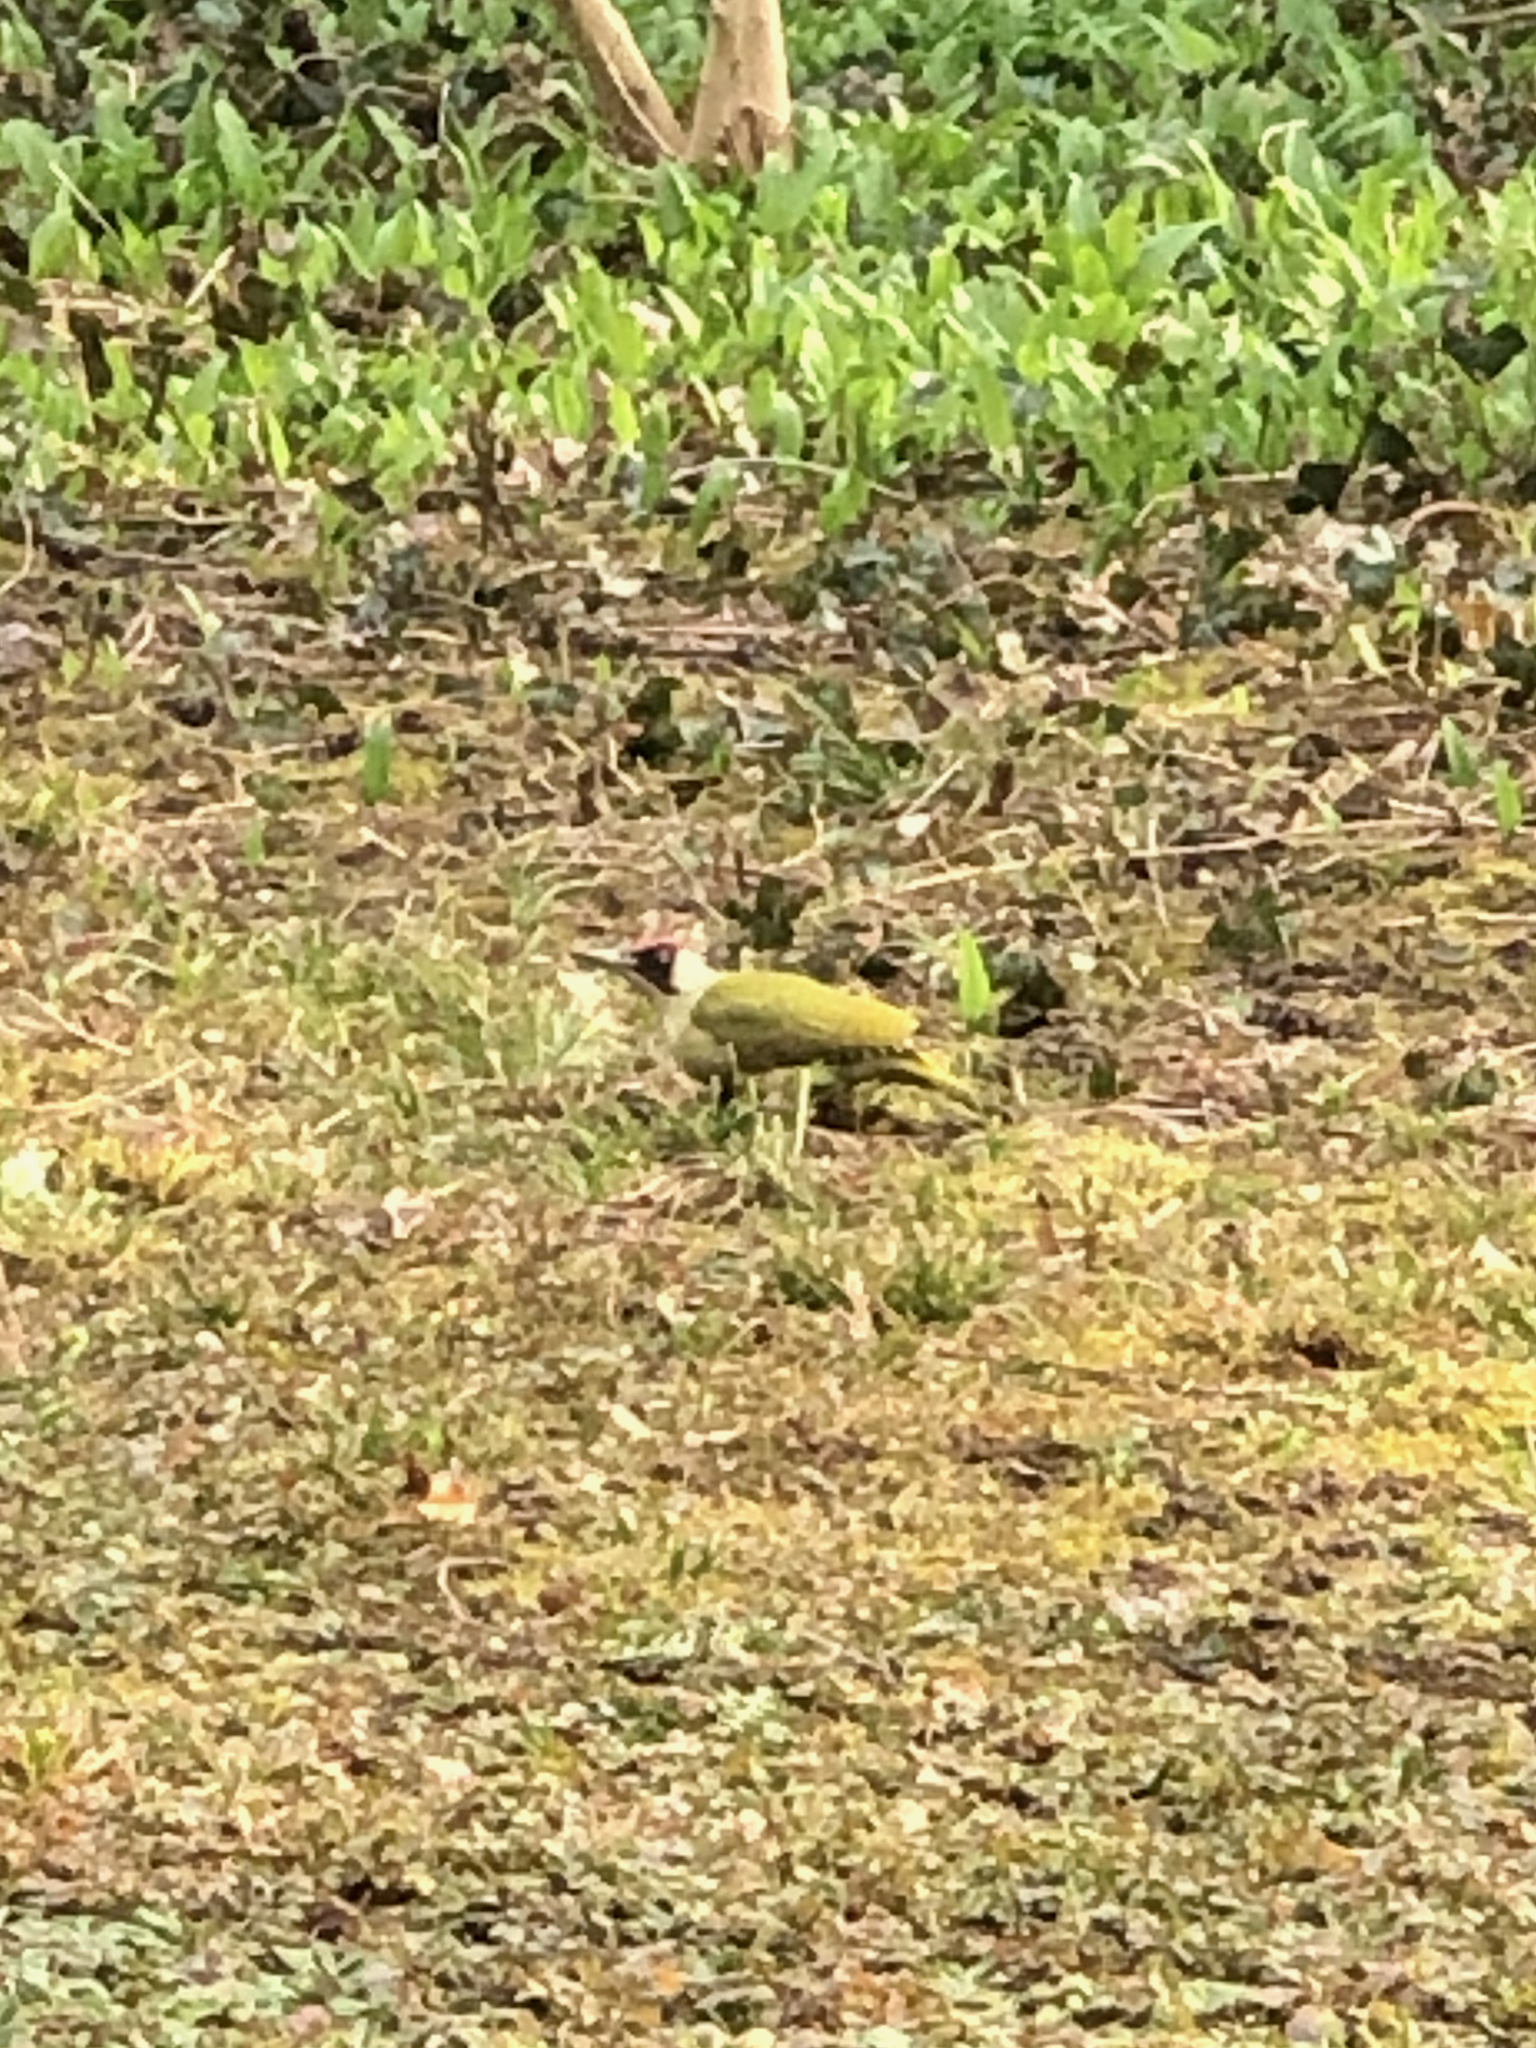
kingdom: Animalia
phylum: Chordata
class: Aves
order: Piciformes
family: Picidae
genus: Picus
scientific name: Picus viridis
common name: European green woodpecker
